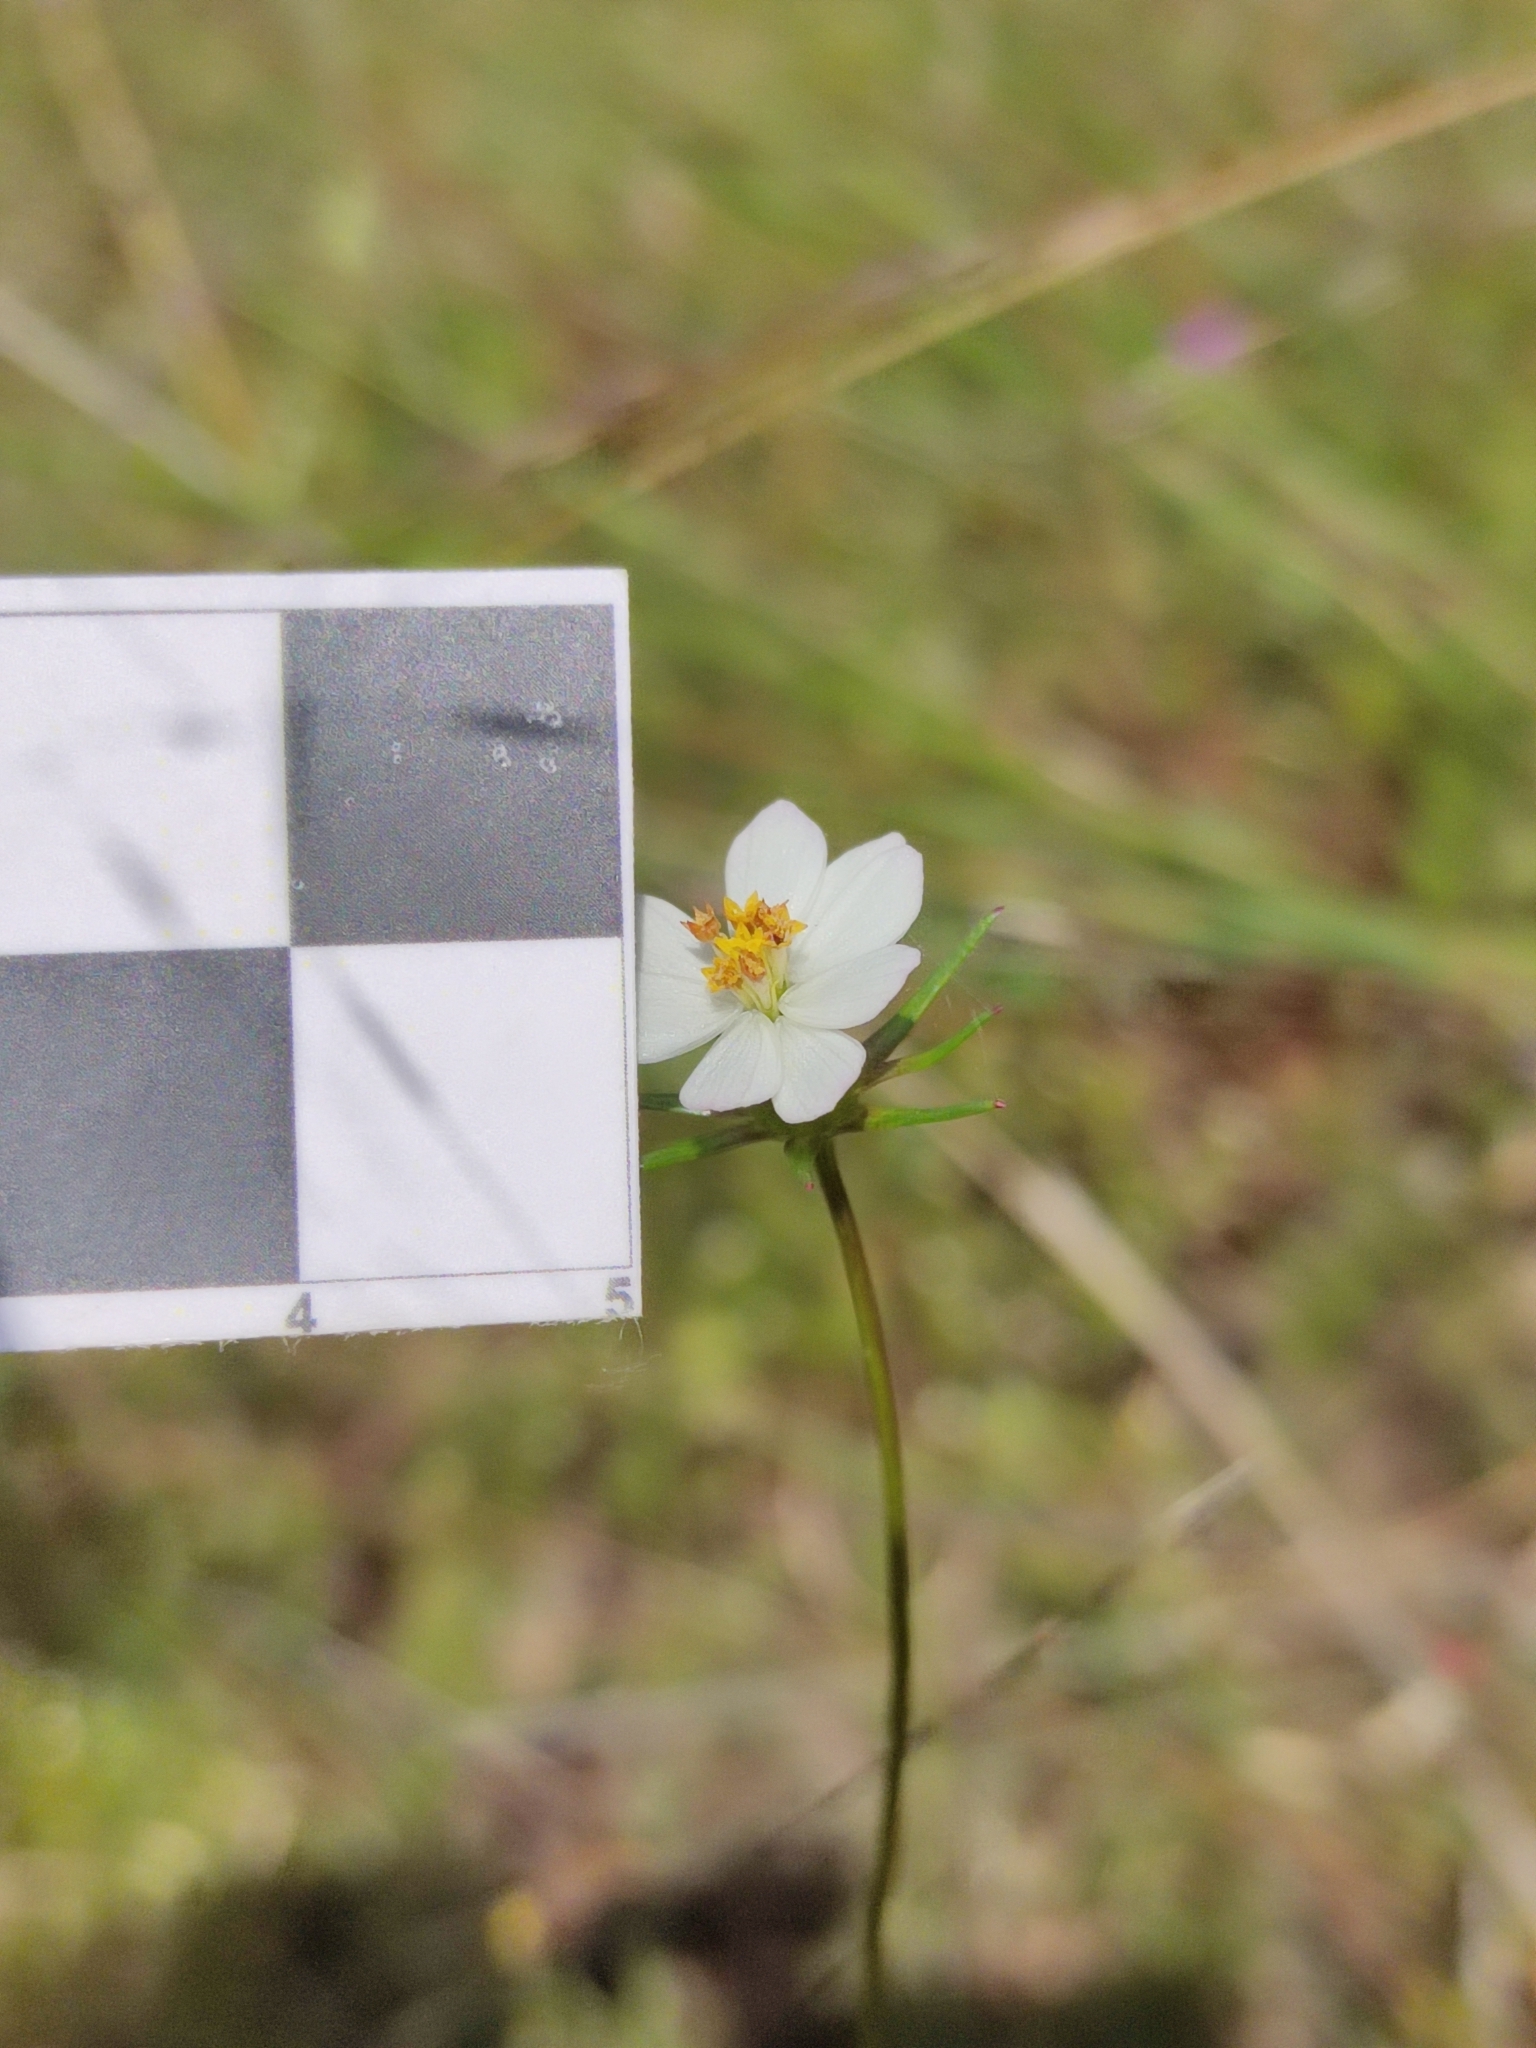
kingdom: Plantae
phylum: Tracheophyta
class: Magnoliopsida
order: Asterales
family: Asteraceae
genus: Cosmos
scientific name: Cosmos parviflorus
